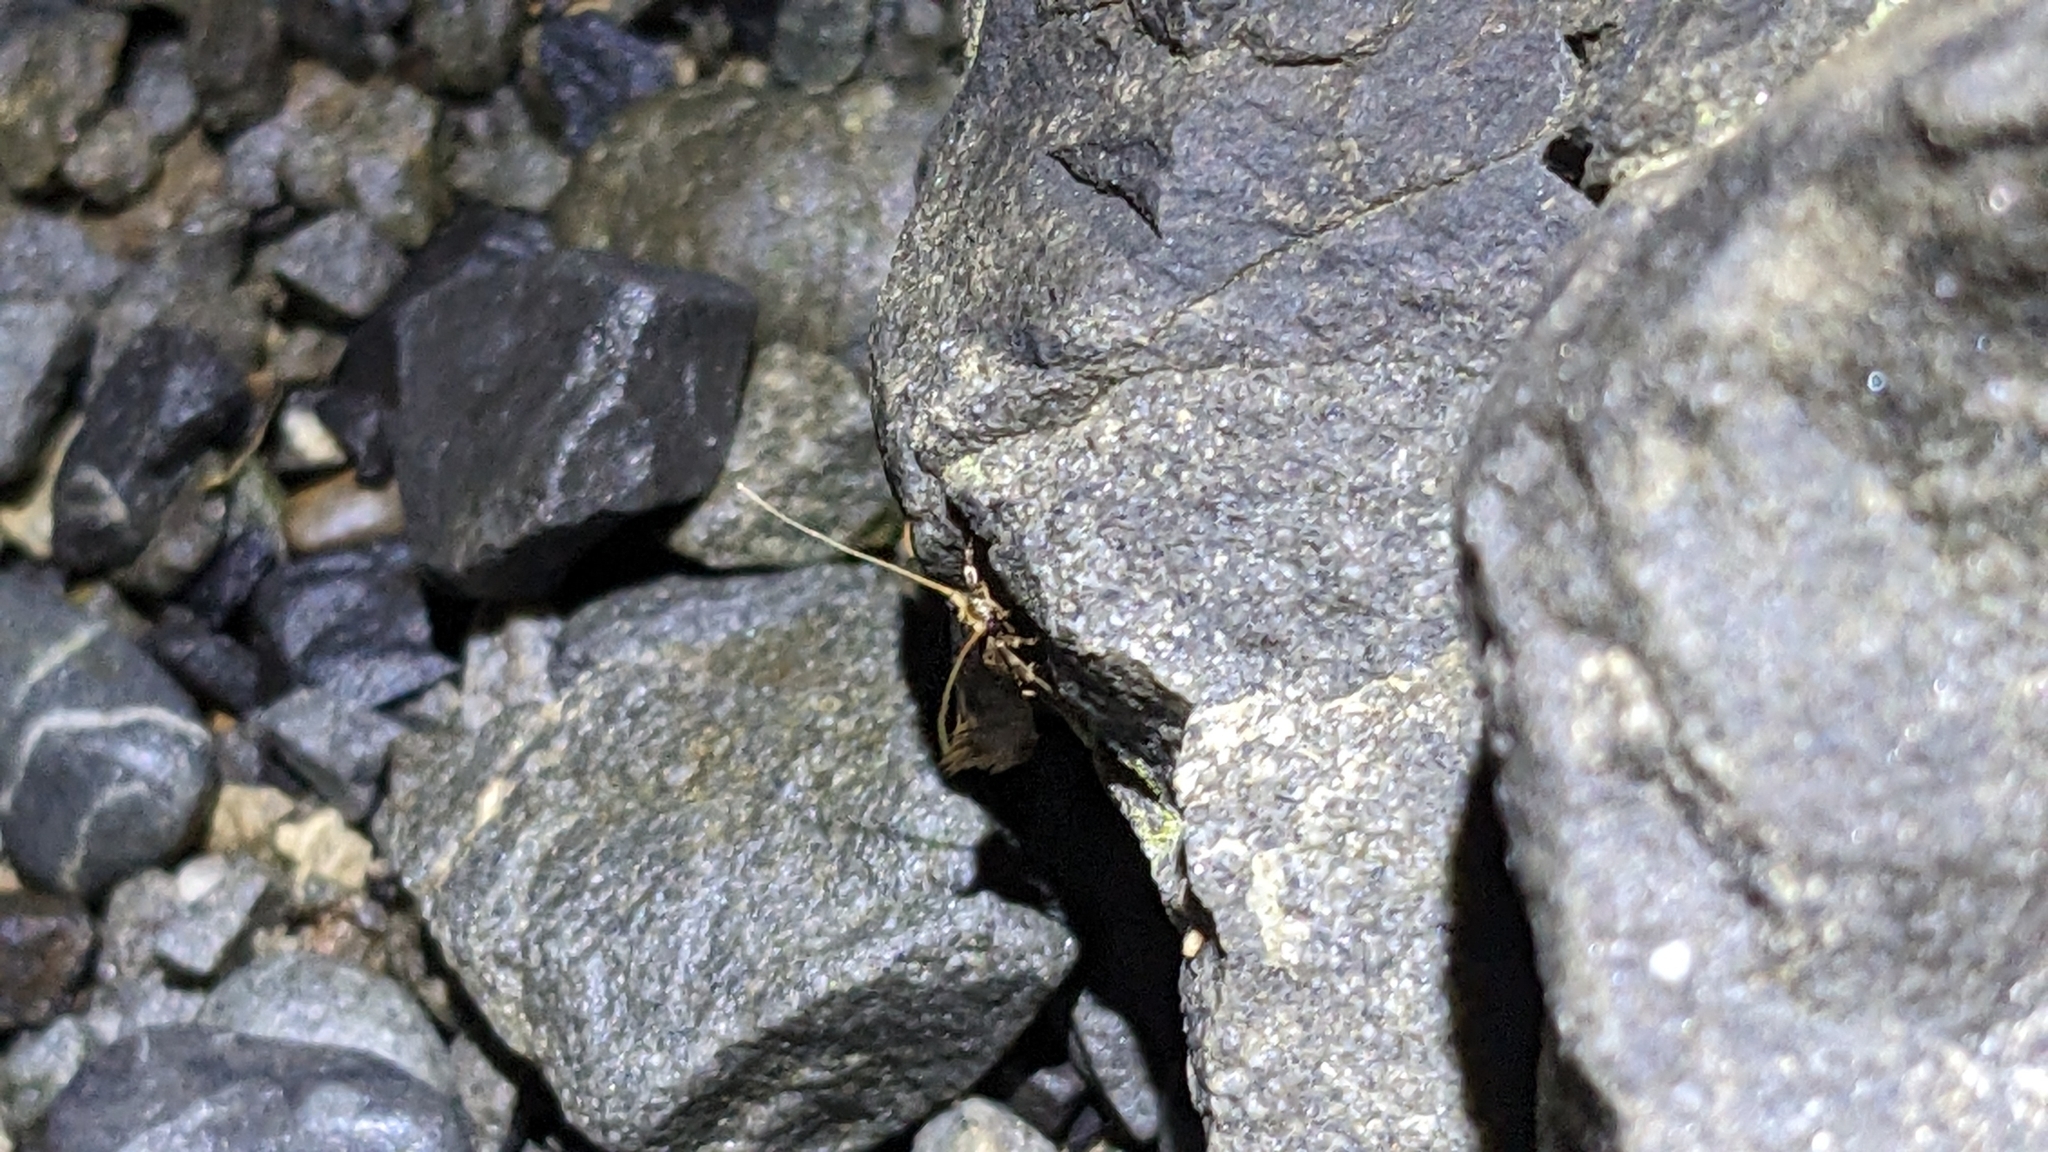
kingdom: Animalia
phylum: Arthropoda
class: Insecta
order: Lepidoptera
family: Tineidae
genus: Opogona
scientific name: Opogona omoscopa
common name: Moth
